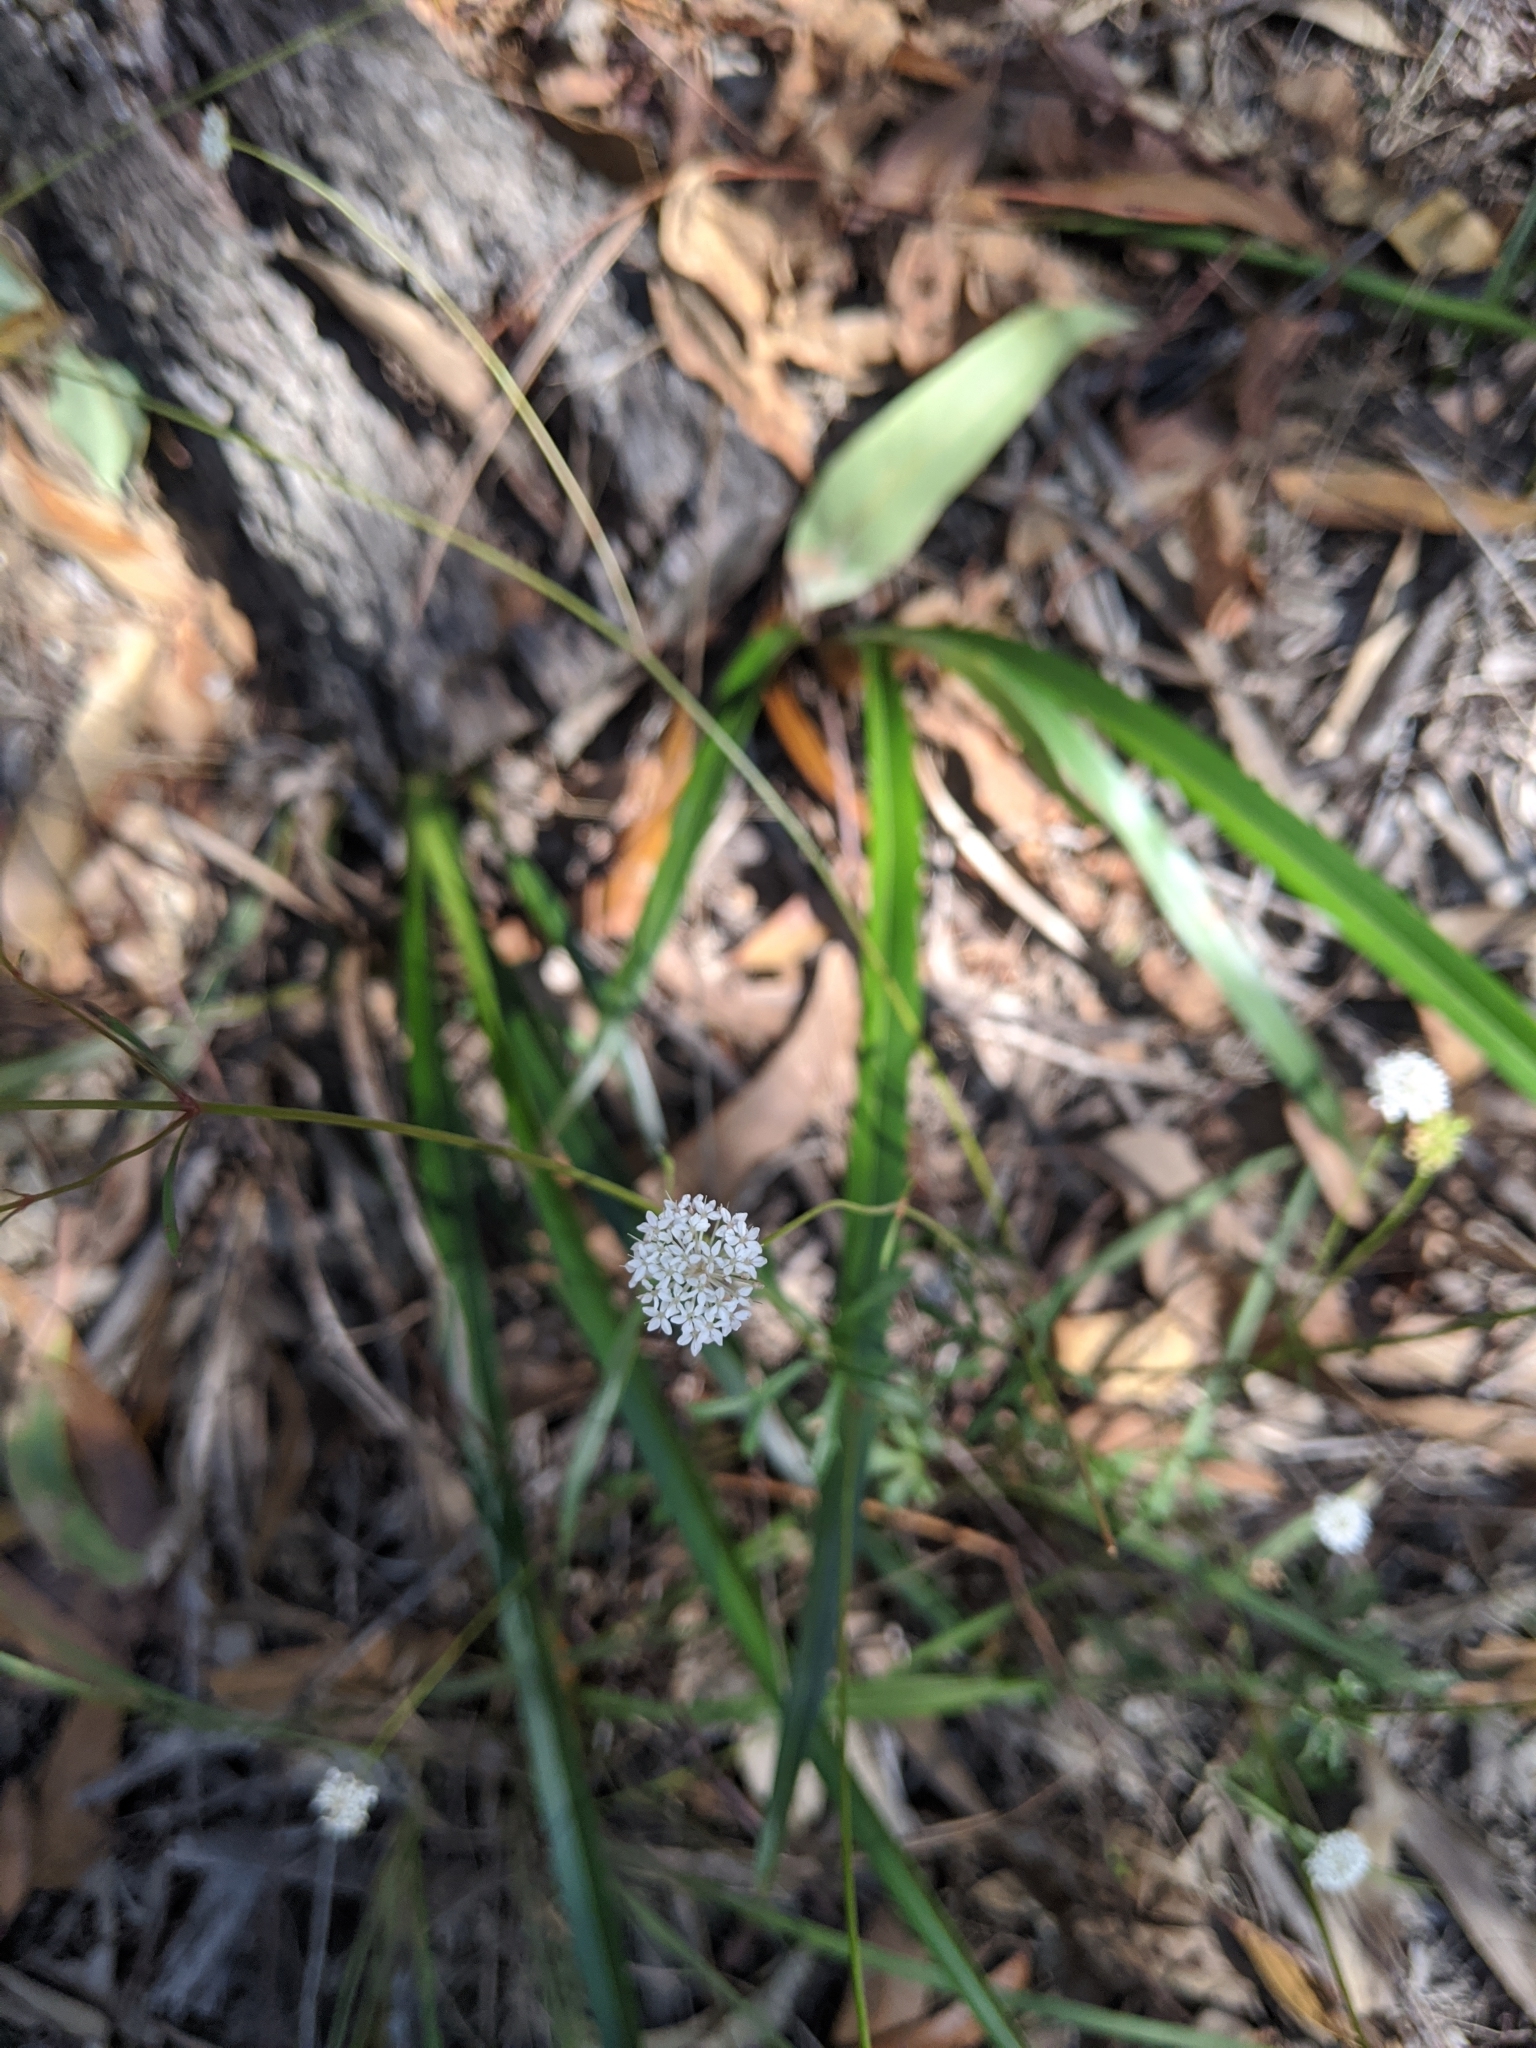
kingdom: Plantae
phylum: Tracheophyta
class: Magnoliopsida
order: Apiales
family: Araliaceae
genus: Trachymene
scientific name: Trachymene incisa
